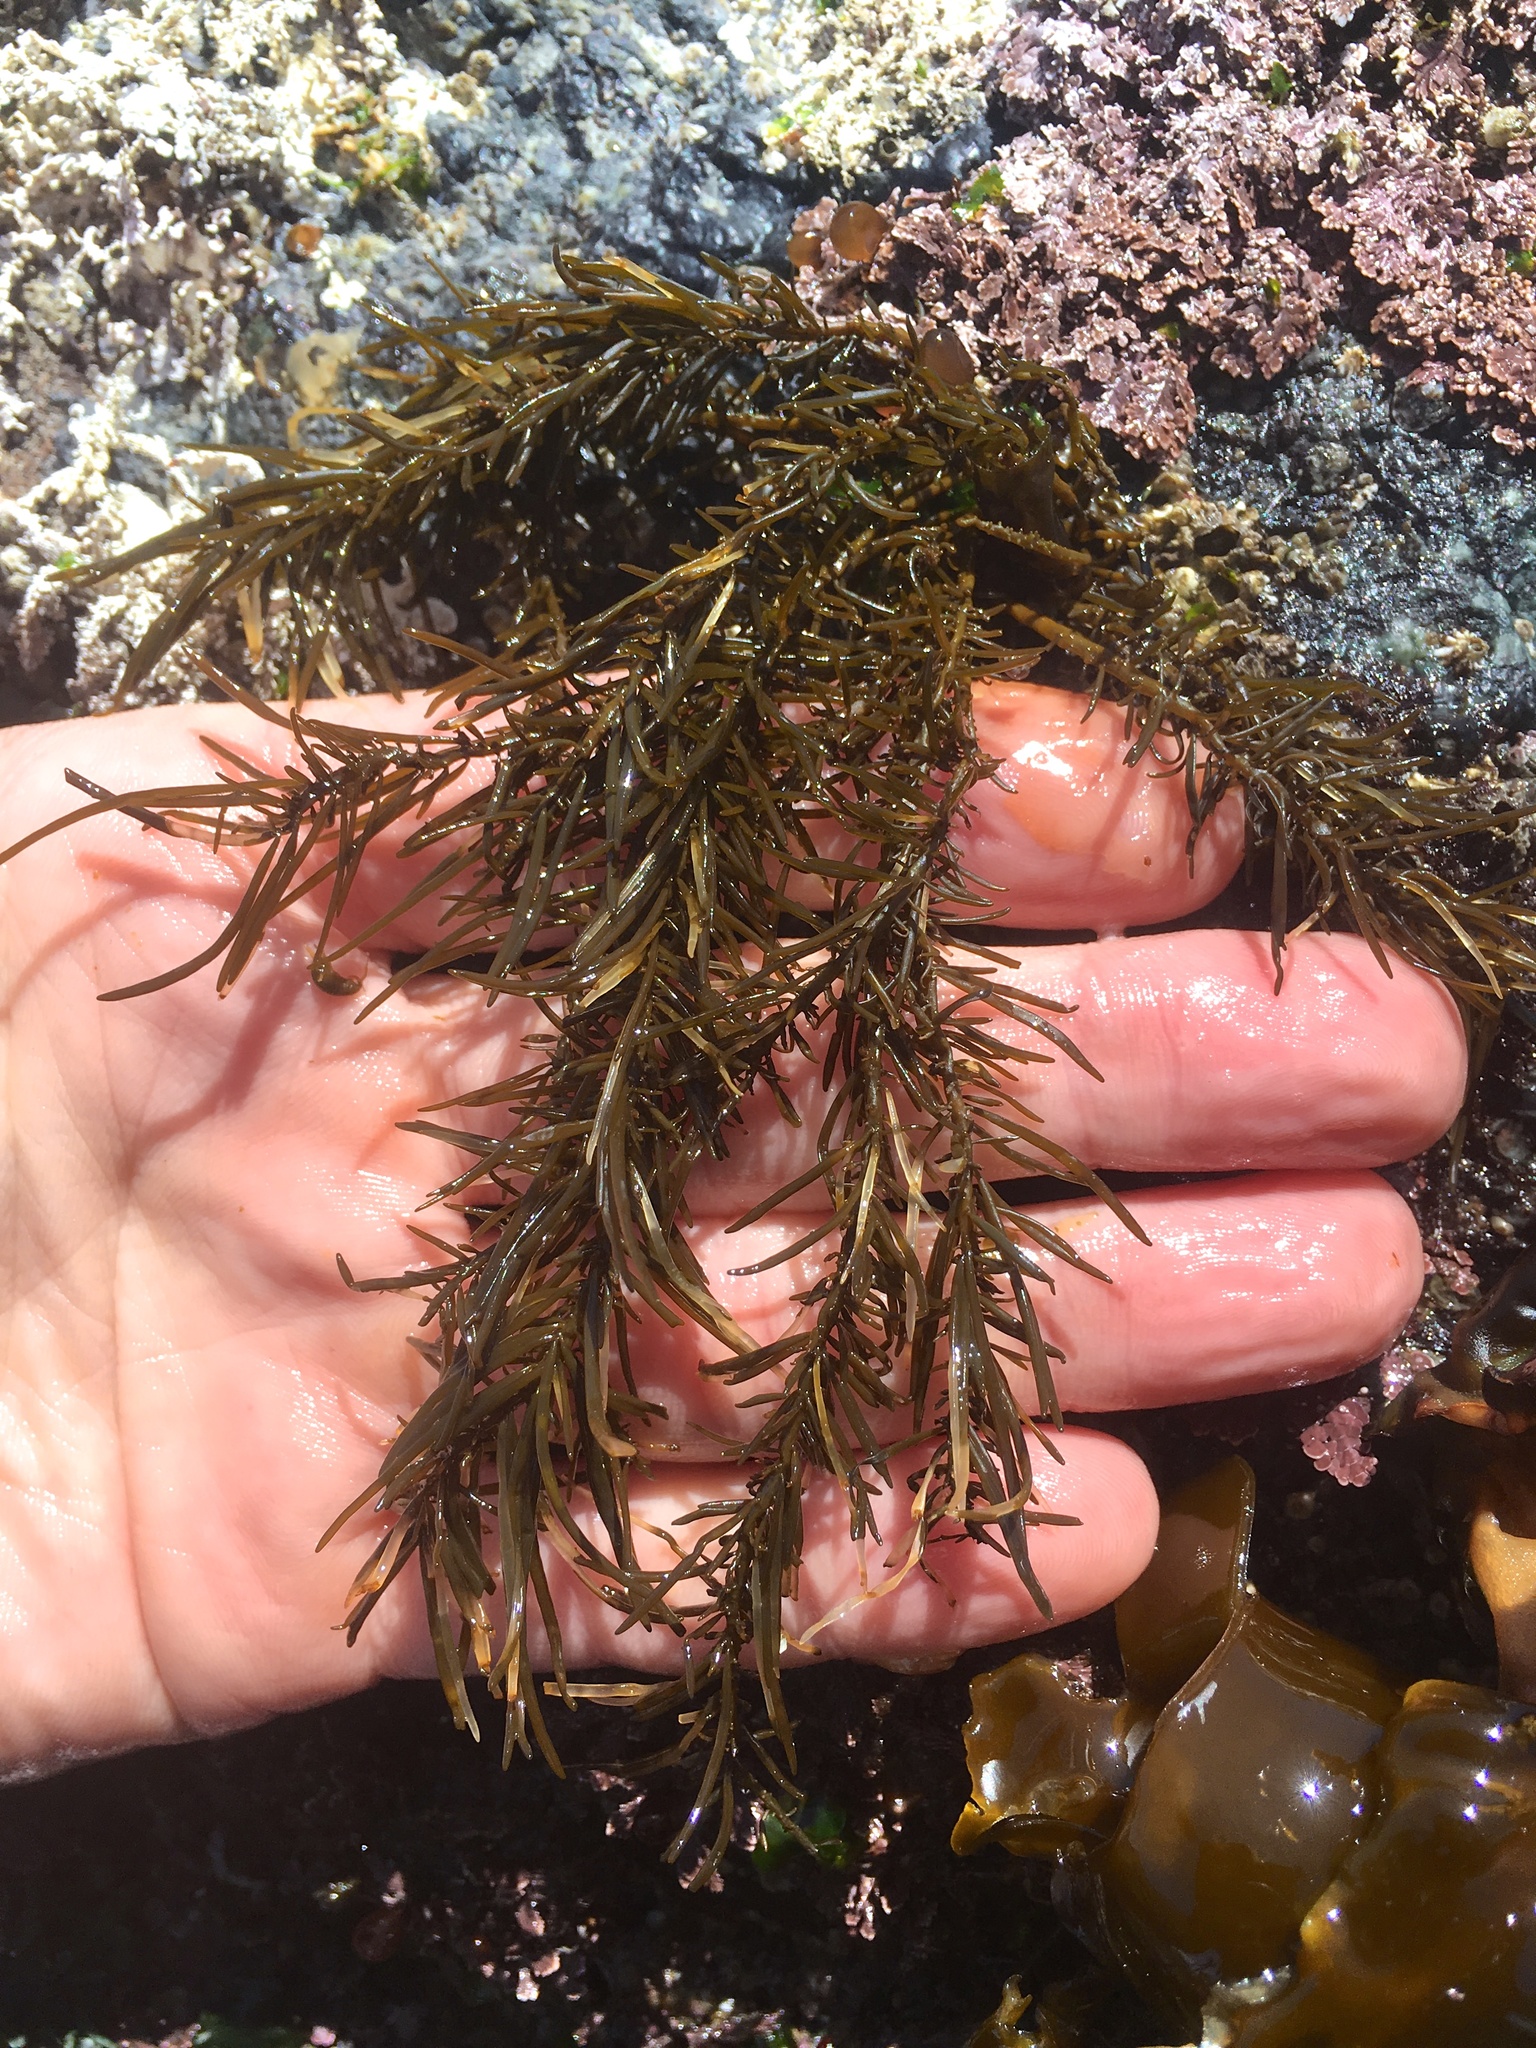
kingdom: Chromista
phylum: Ochrophyta
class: Phaeophyceae
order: Scytosiphonales
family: Scytosiphonaceae
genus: Analipus
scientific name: Analipus japonicus
